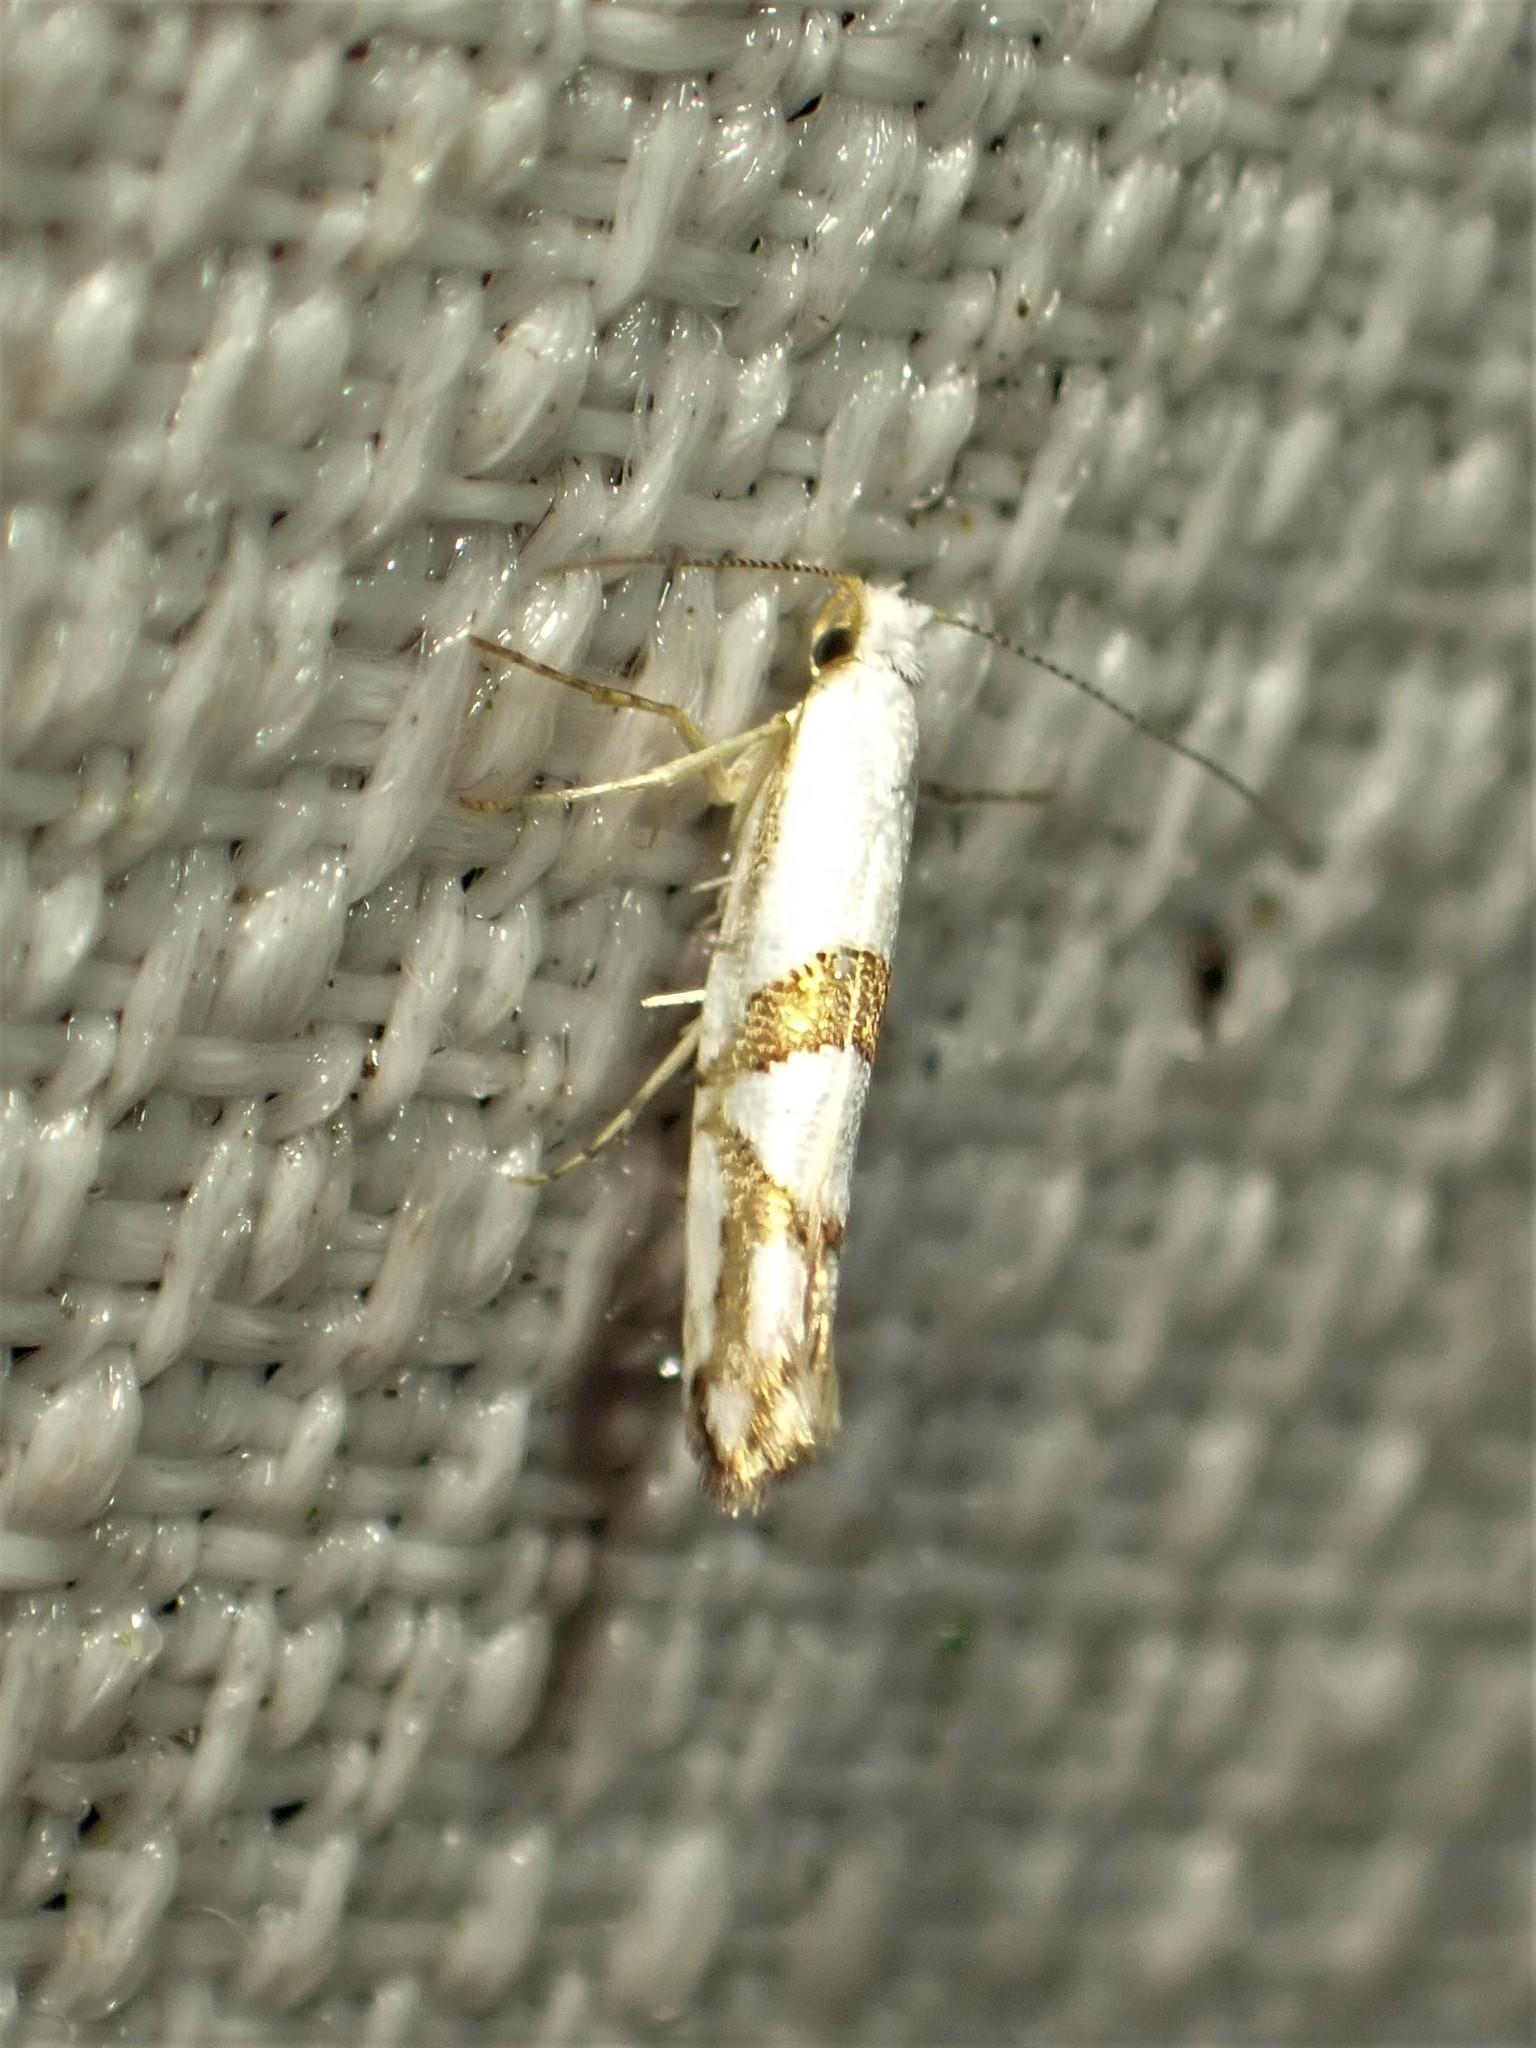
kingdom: Animalia
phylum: Arthropoda
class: Insecta
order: Lepidoptera
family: Argyresthiidae
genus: Argyresthia
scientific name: Argyresthia oreasella
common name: Cherry shoot borer moth
